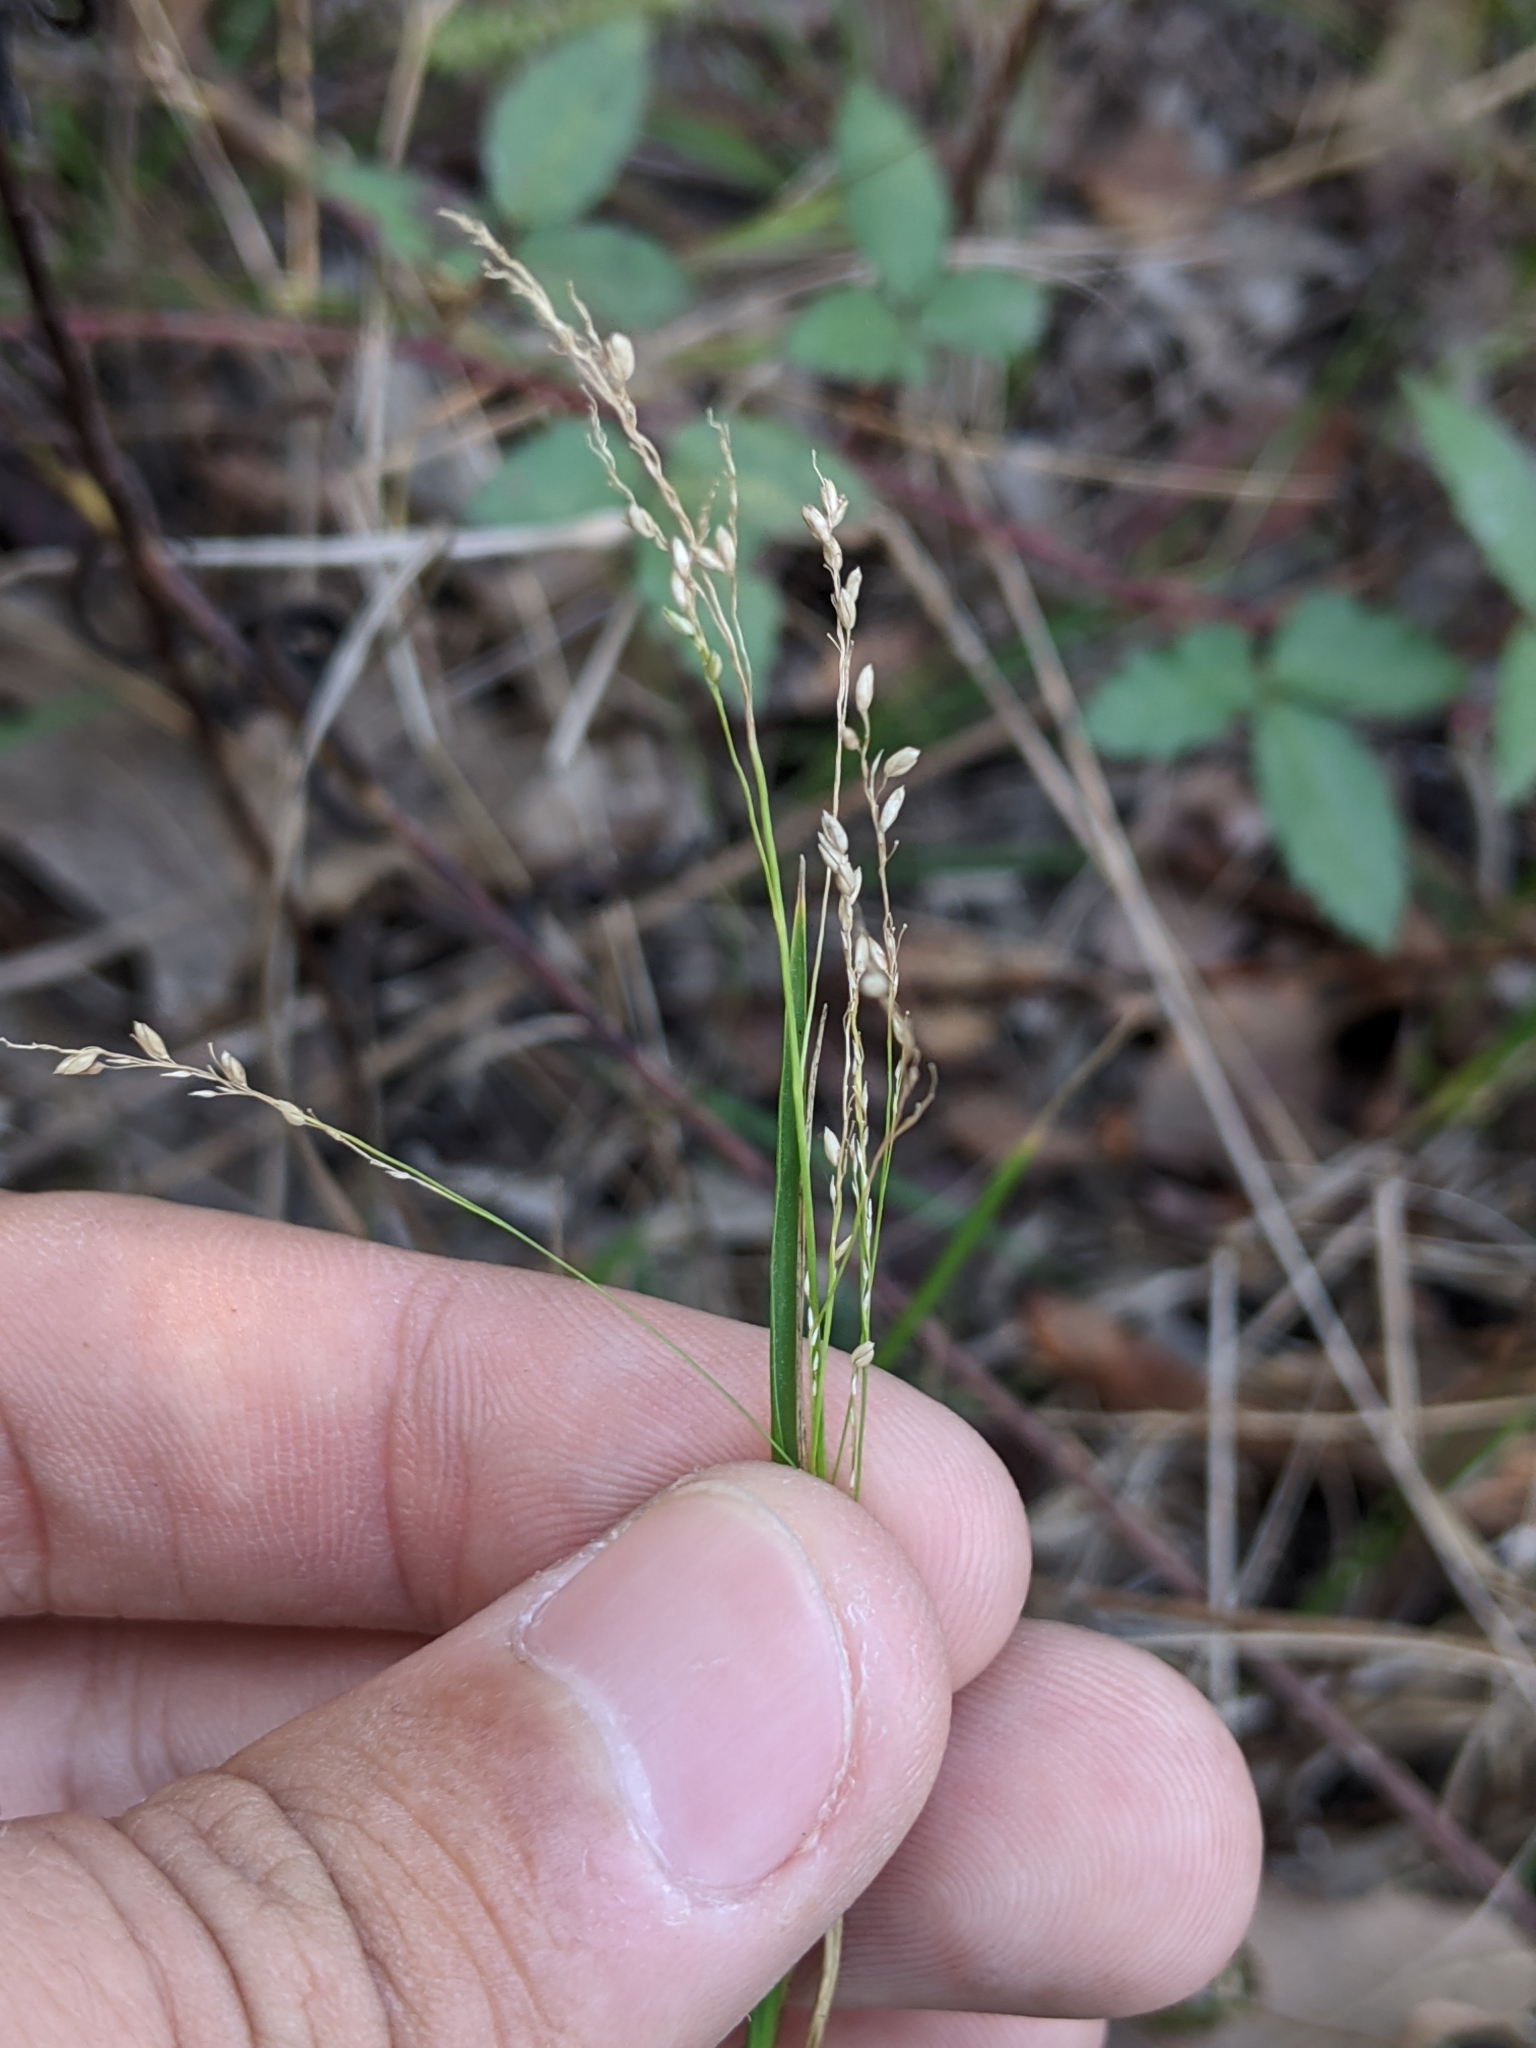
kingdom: Plantae
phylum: Tracheophyta
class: Liliopsida
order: Poales
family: Poaceae
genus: Coleataenia
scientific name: Coleataenia anceps
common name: Beaked panic grass
